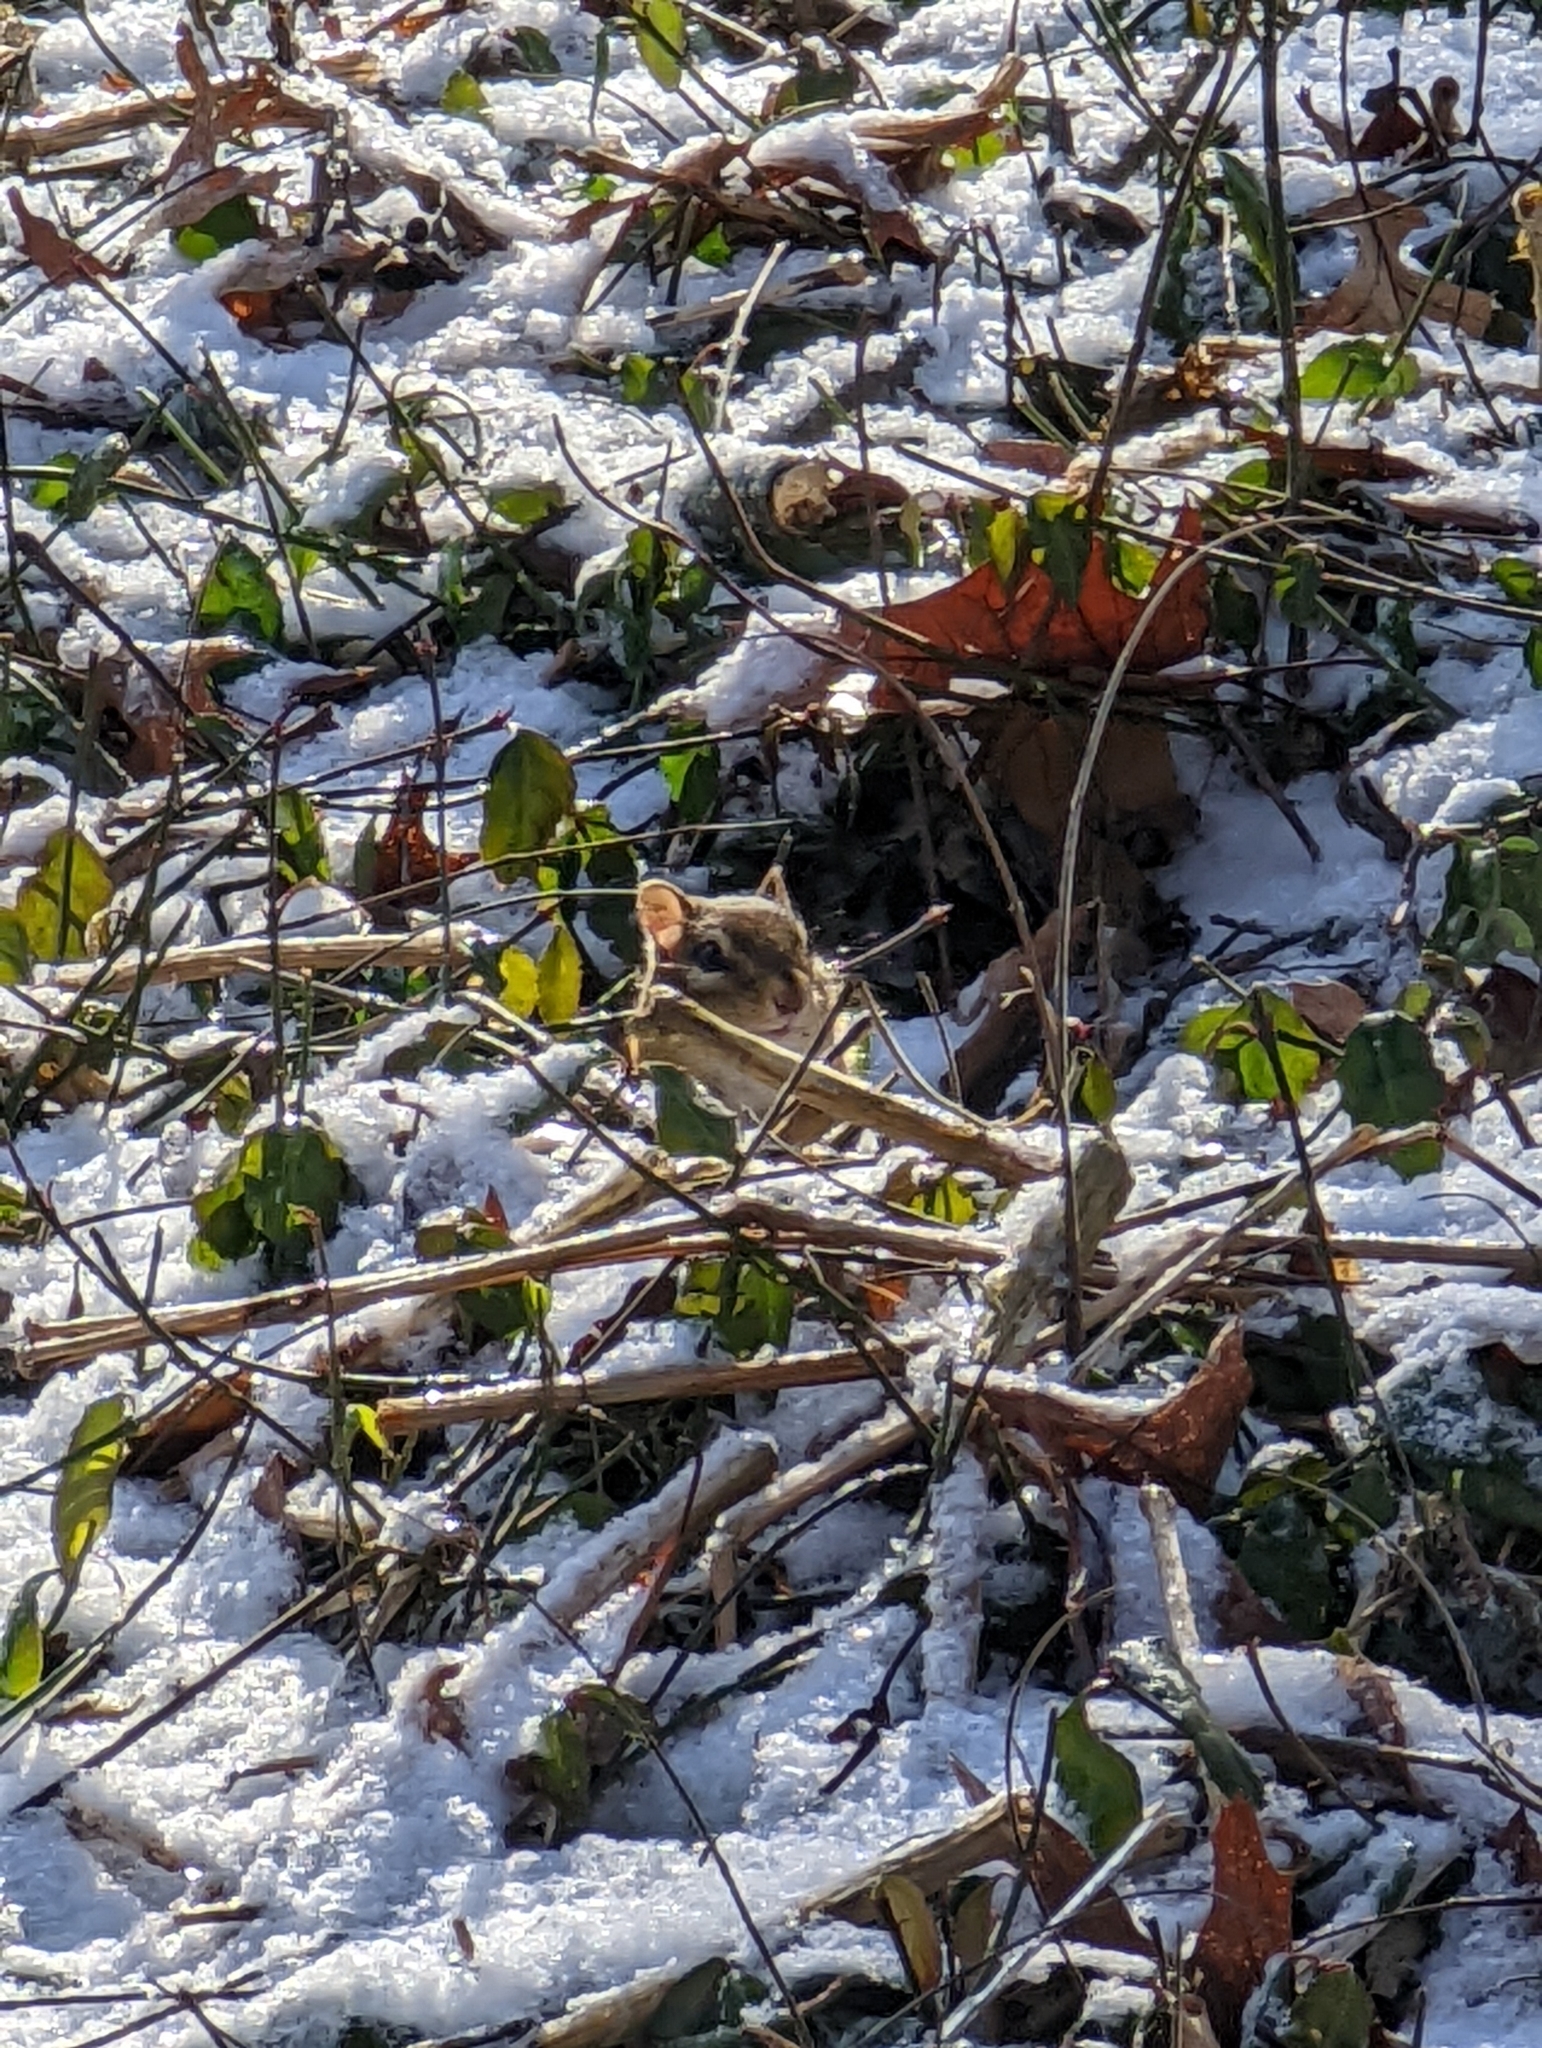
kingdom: Animalia
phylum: Chordata
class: Mammalia
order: Rodentia
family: Sciuridae
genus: Tamias
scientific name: Tamias striatus
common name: Eastern chipmunk
